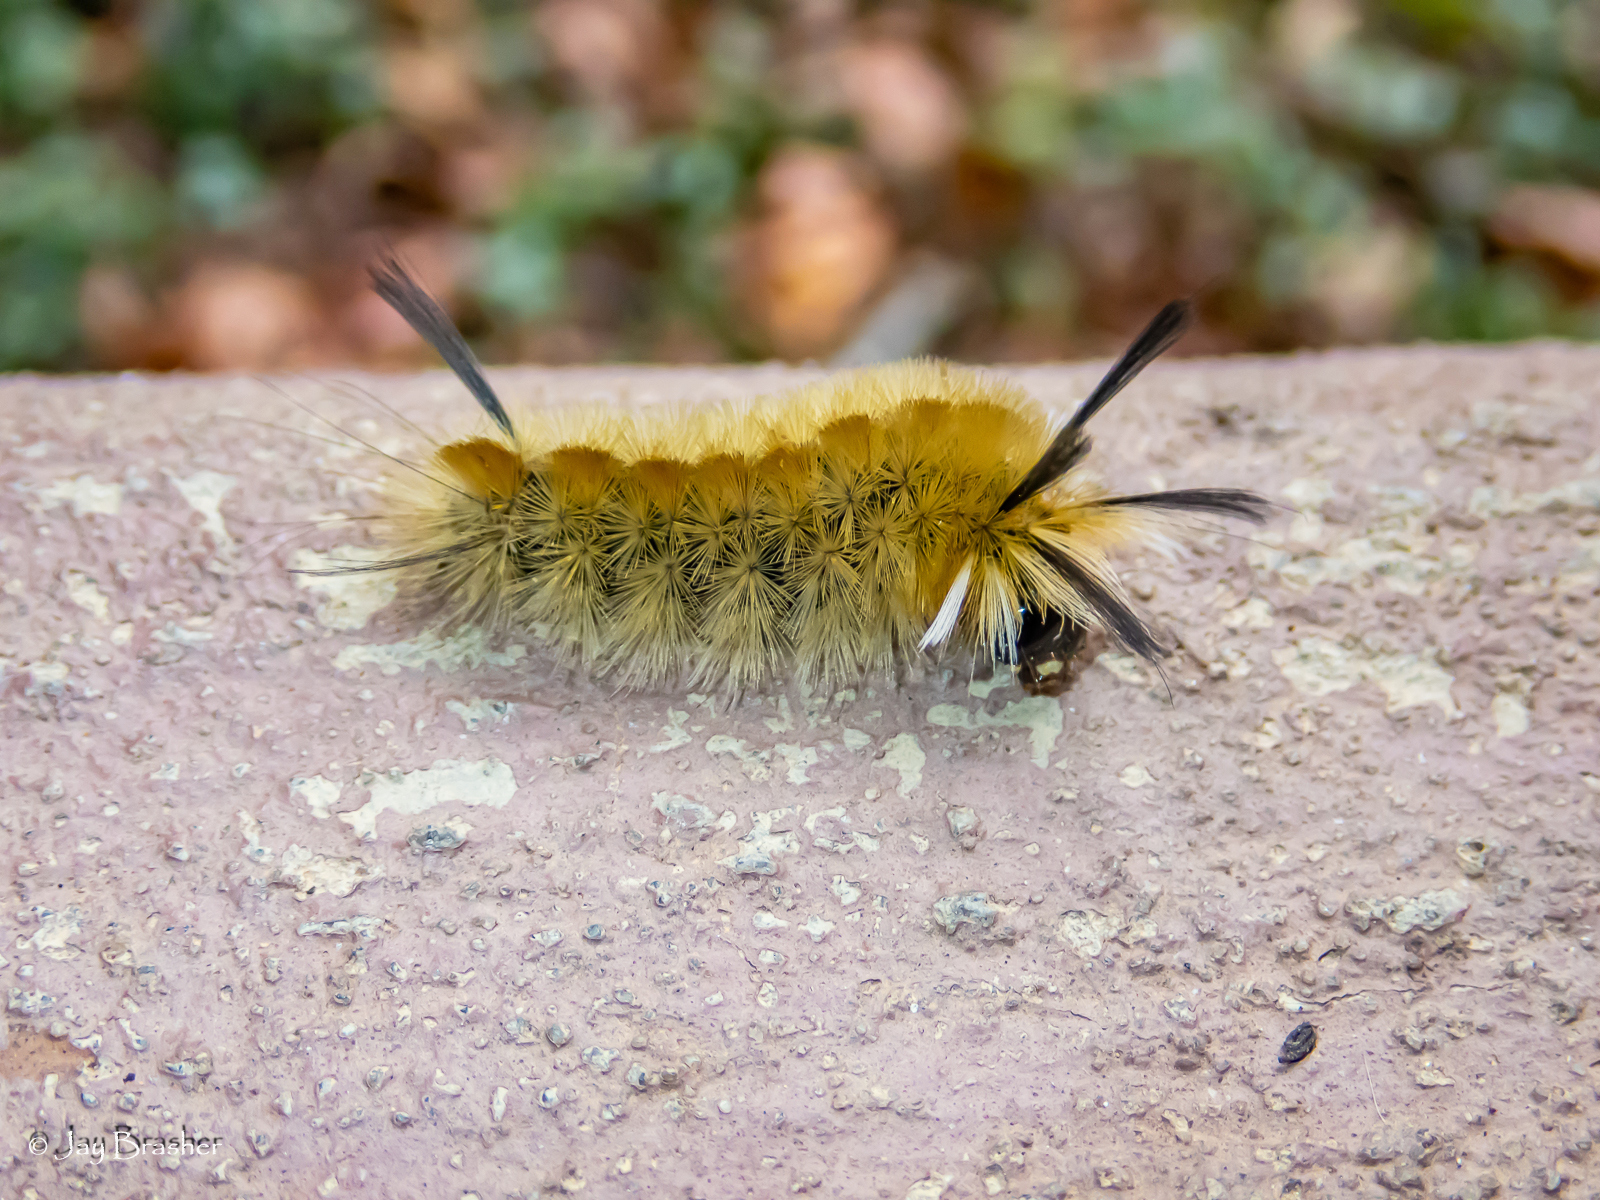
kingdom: Animalia
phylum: Arthropoda
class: Insecta
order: Lepidoptera
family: Erebidae
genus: Halysidota
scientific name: Halysidota tessellaris
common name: Banded tussock moth
